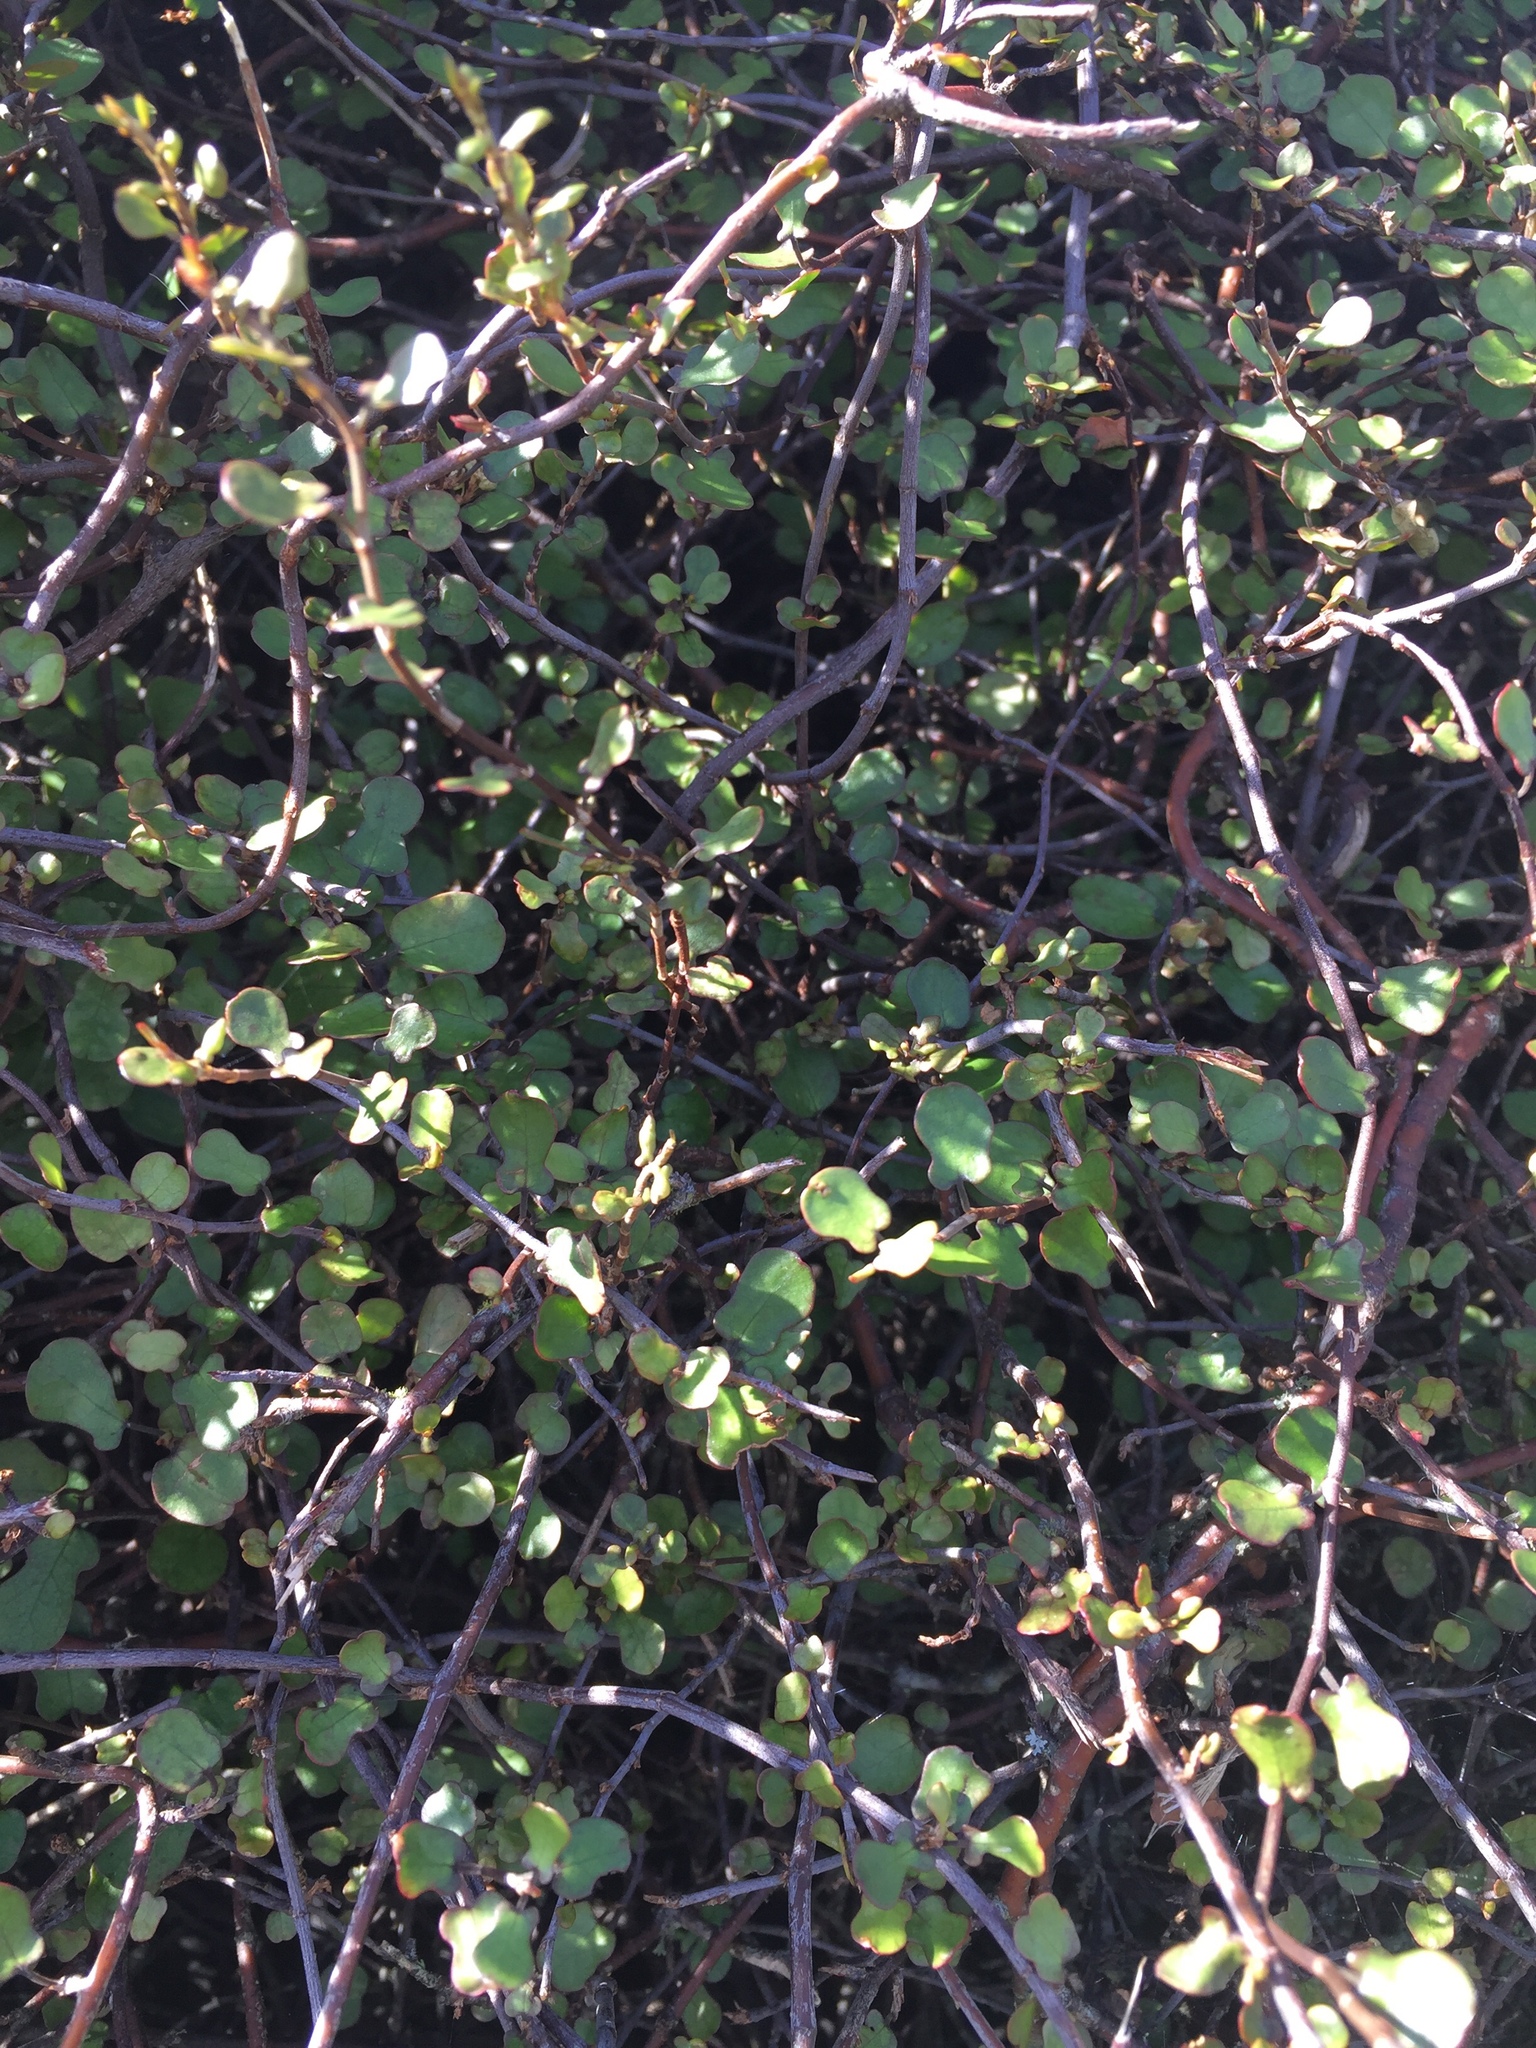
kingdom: Plantae
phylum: Tracheophyta
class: Magnoliopsida
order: Caryophyllales
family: Polygonaceae
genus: Muehlenbeckia
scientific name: Muehlenbeckia complexa
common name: Wireplant
